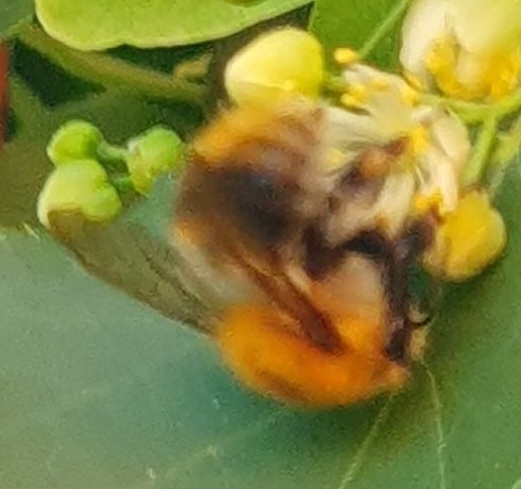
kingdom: Animalia
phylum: Arthropoda
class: Insecta
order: Hymenoptera
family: Apidae
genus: Bombus
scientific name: Bombus pascuorum
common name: Common carder bee
